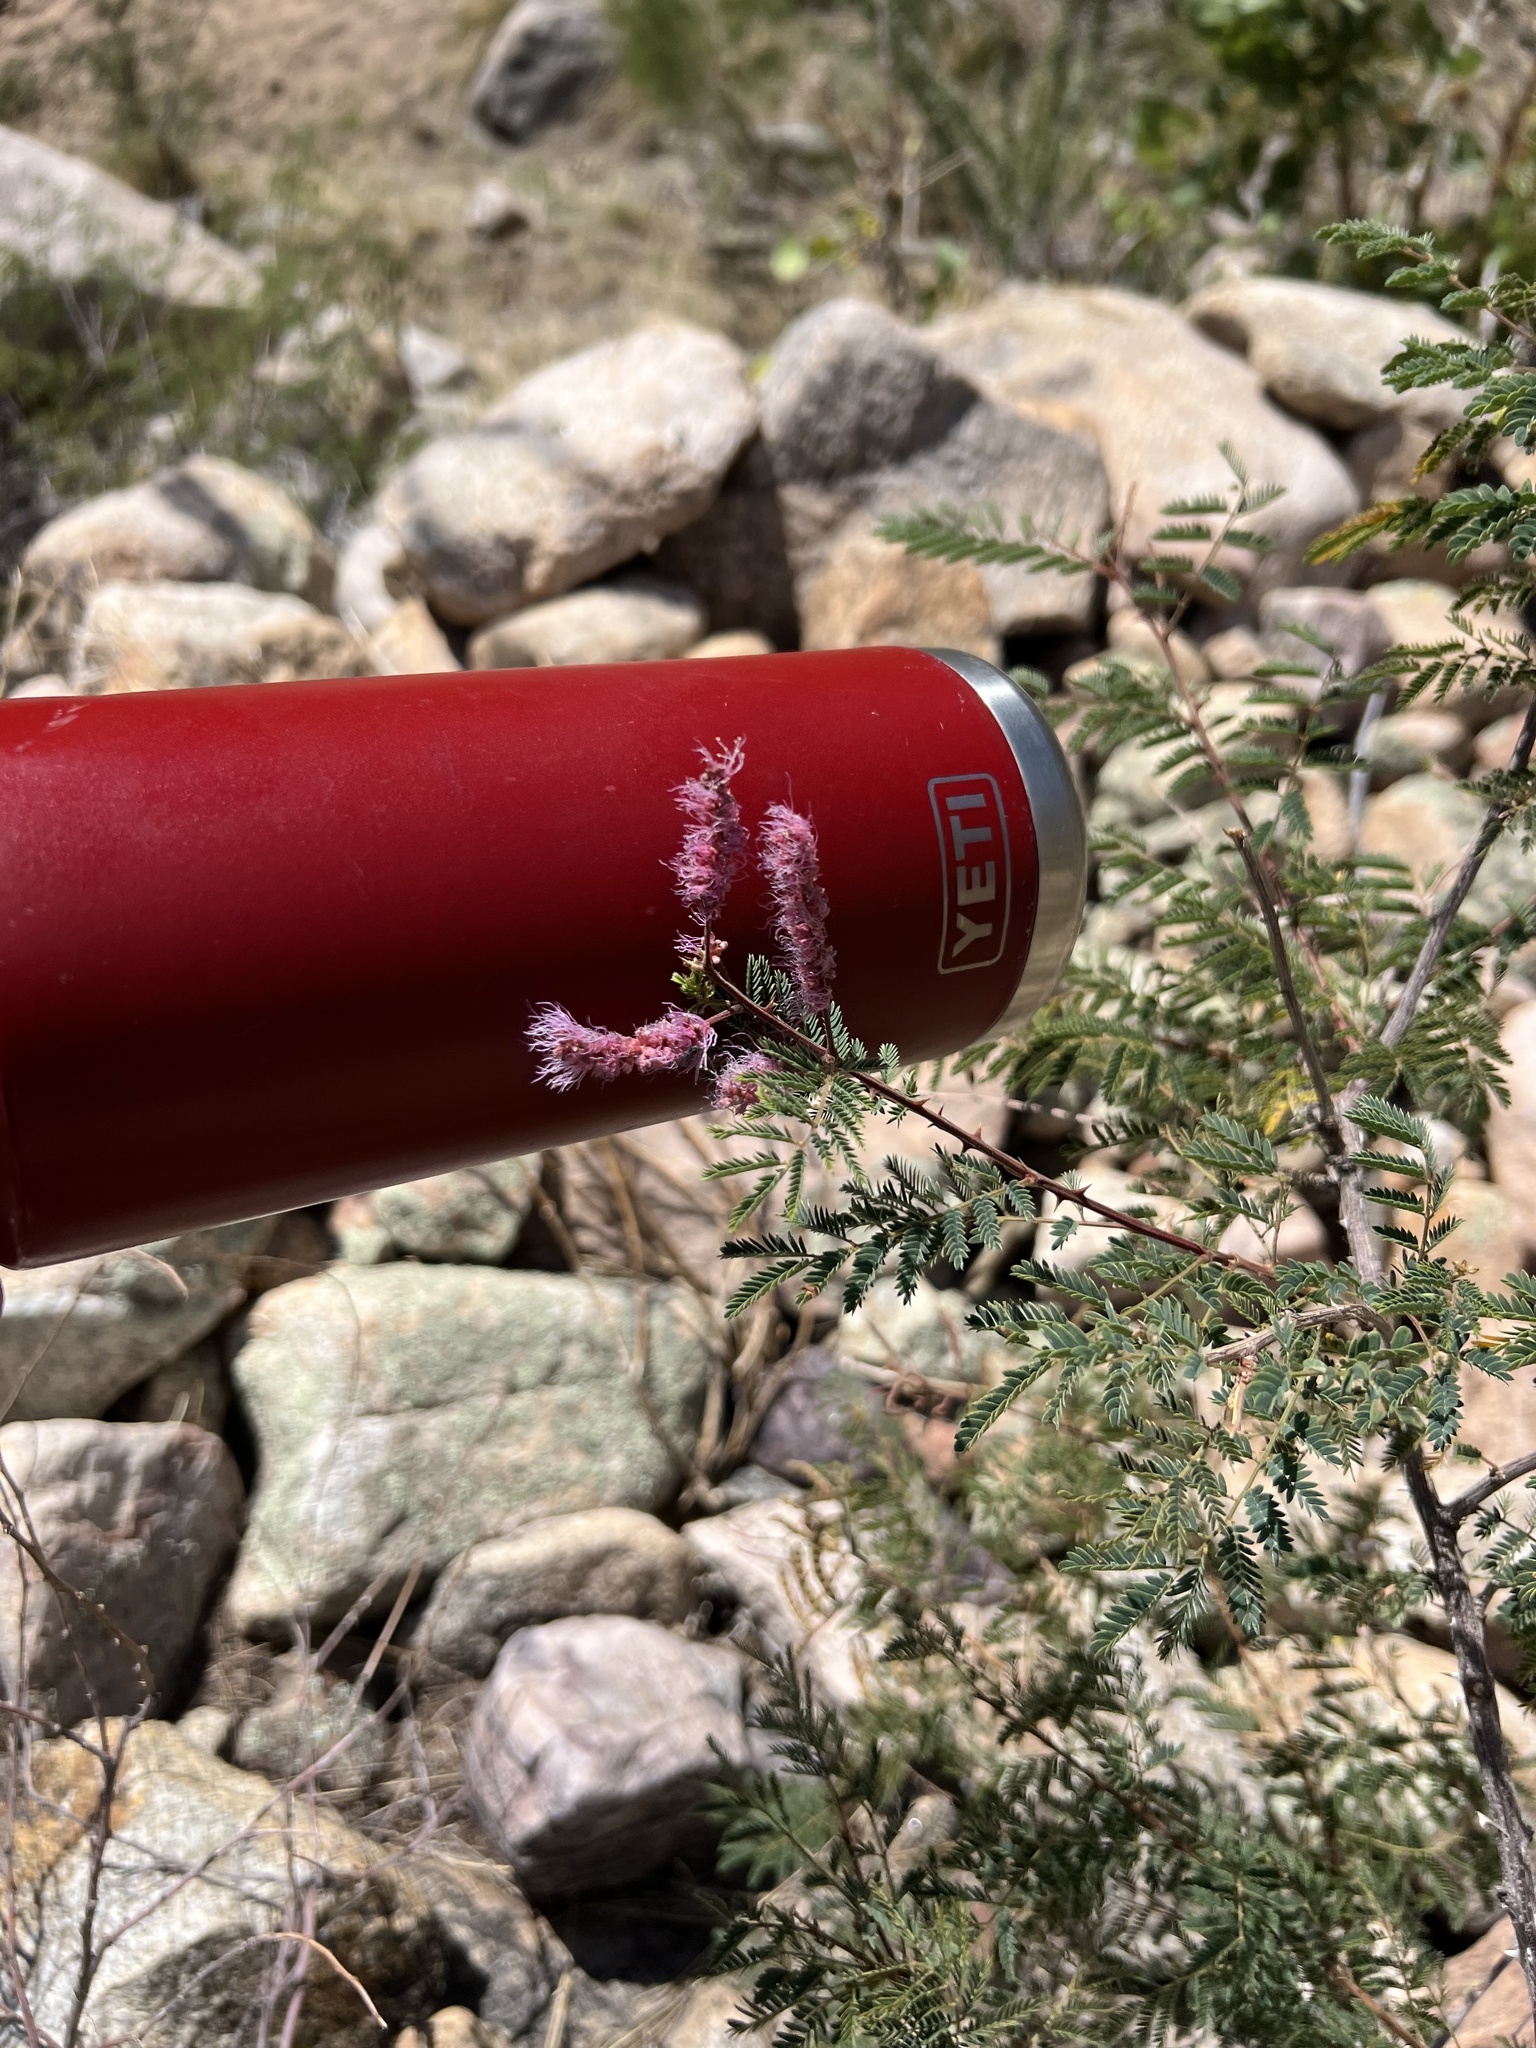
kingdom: Plantae
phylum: Tracheophyta
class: Magnoliopsida
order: Fabales
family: Fabaceae
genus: Mimosa
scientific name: Mimosa dysocarpa
